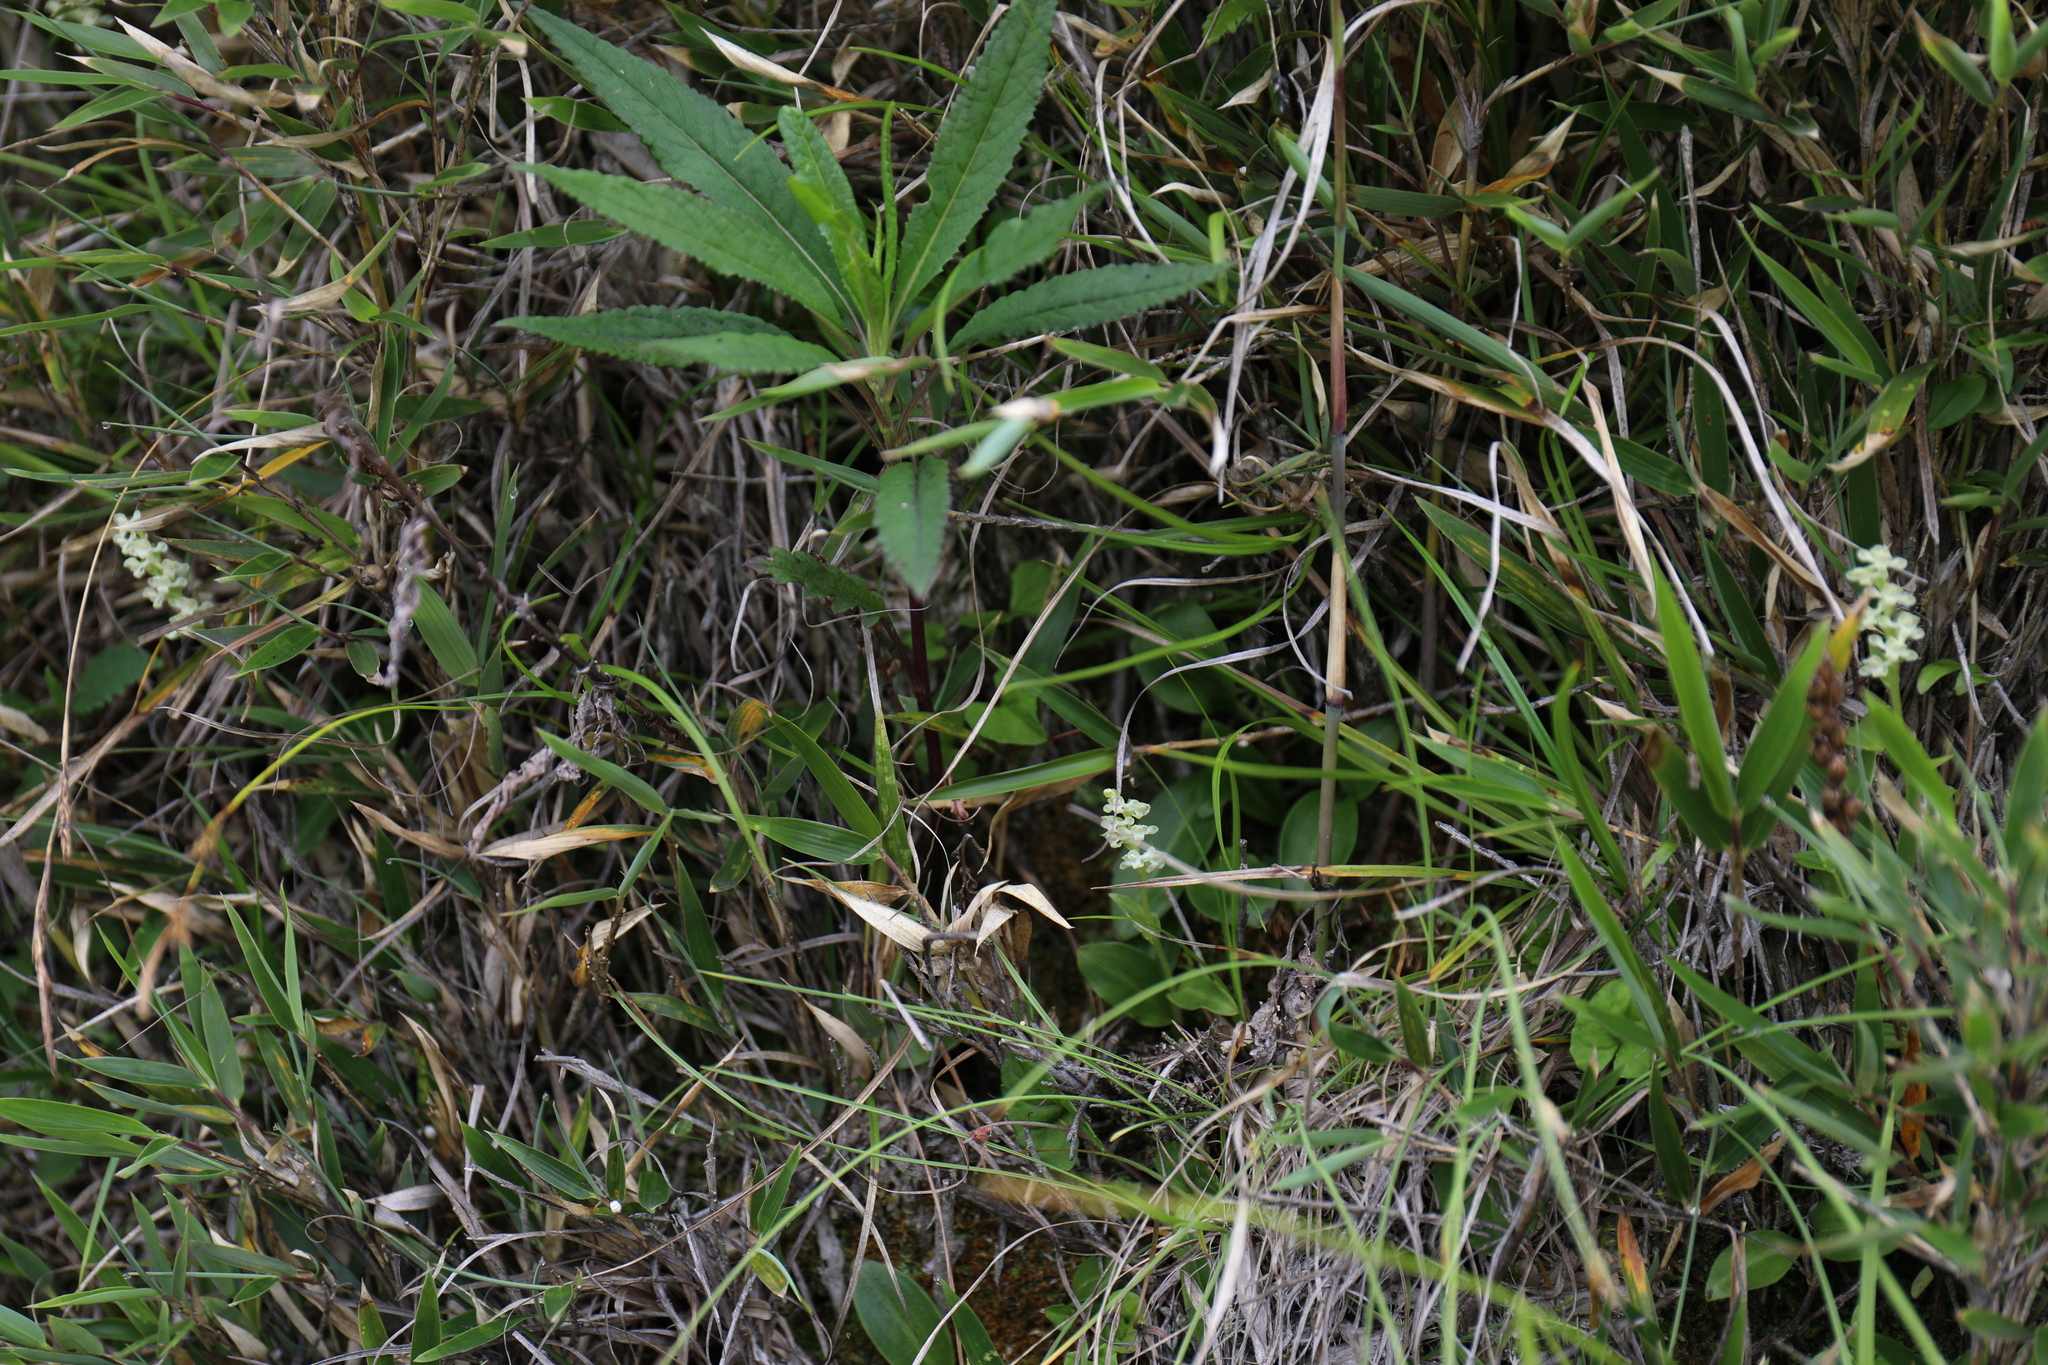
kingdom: Plantae
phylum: Tracheophyta
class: Liliopsida
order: Asparagales
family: Orchidaceae
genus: Platanthera
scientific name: Platanthera brevicalcarata
